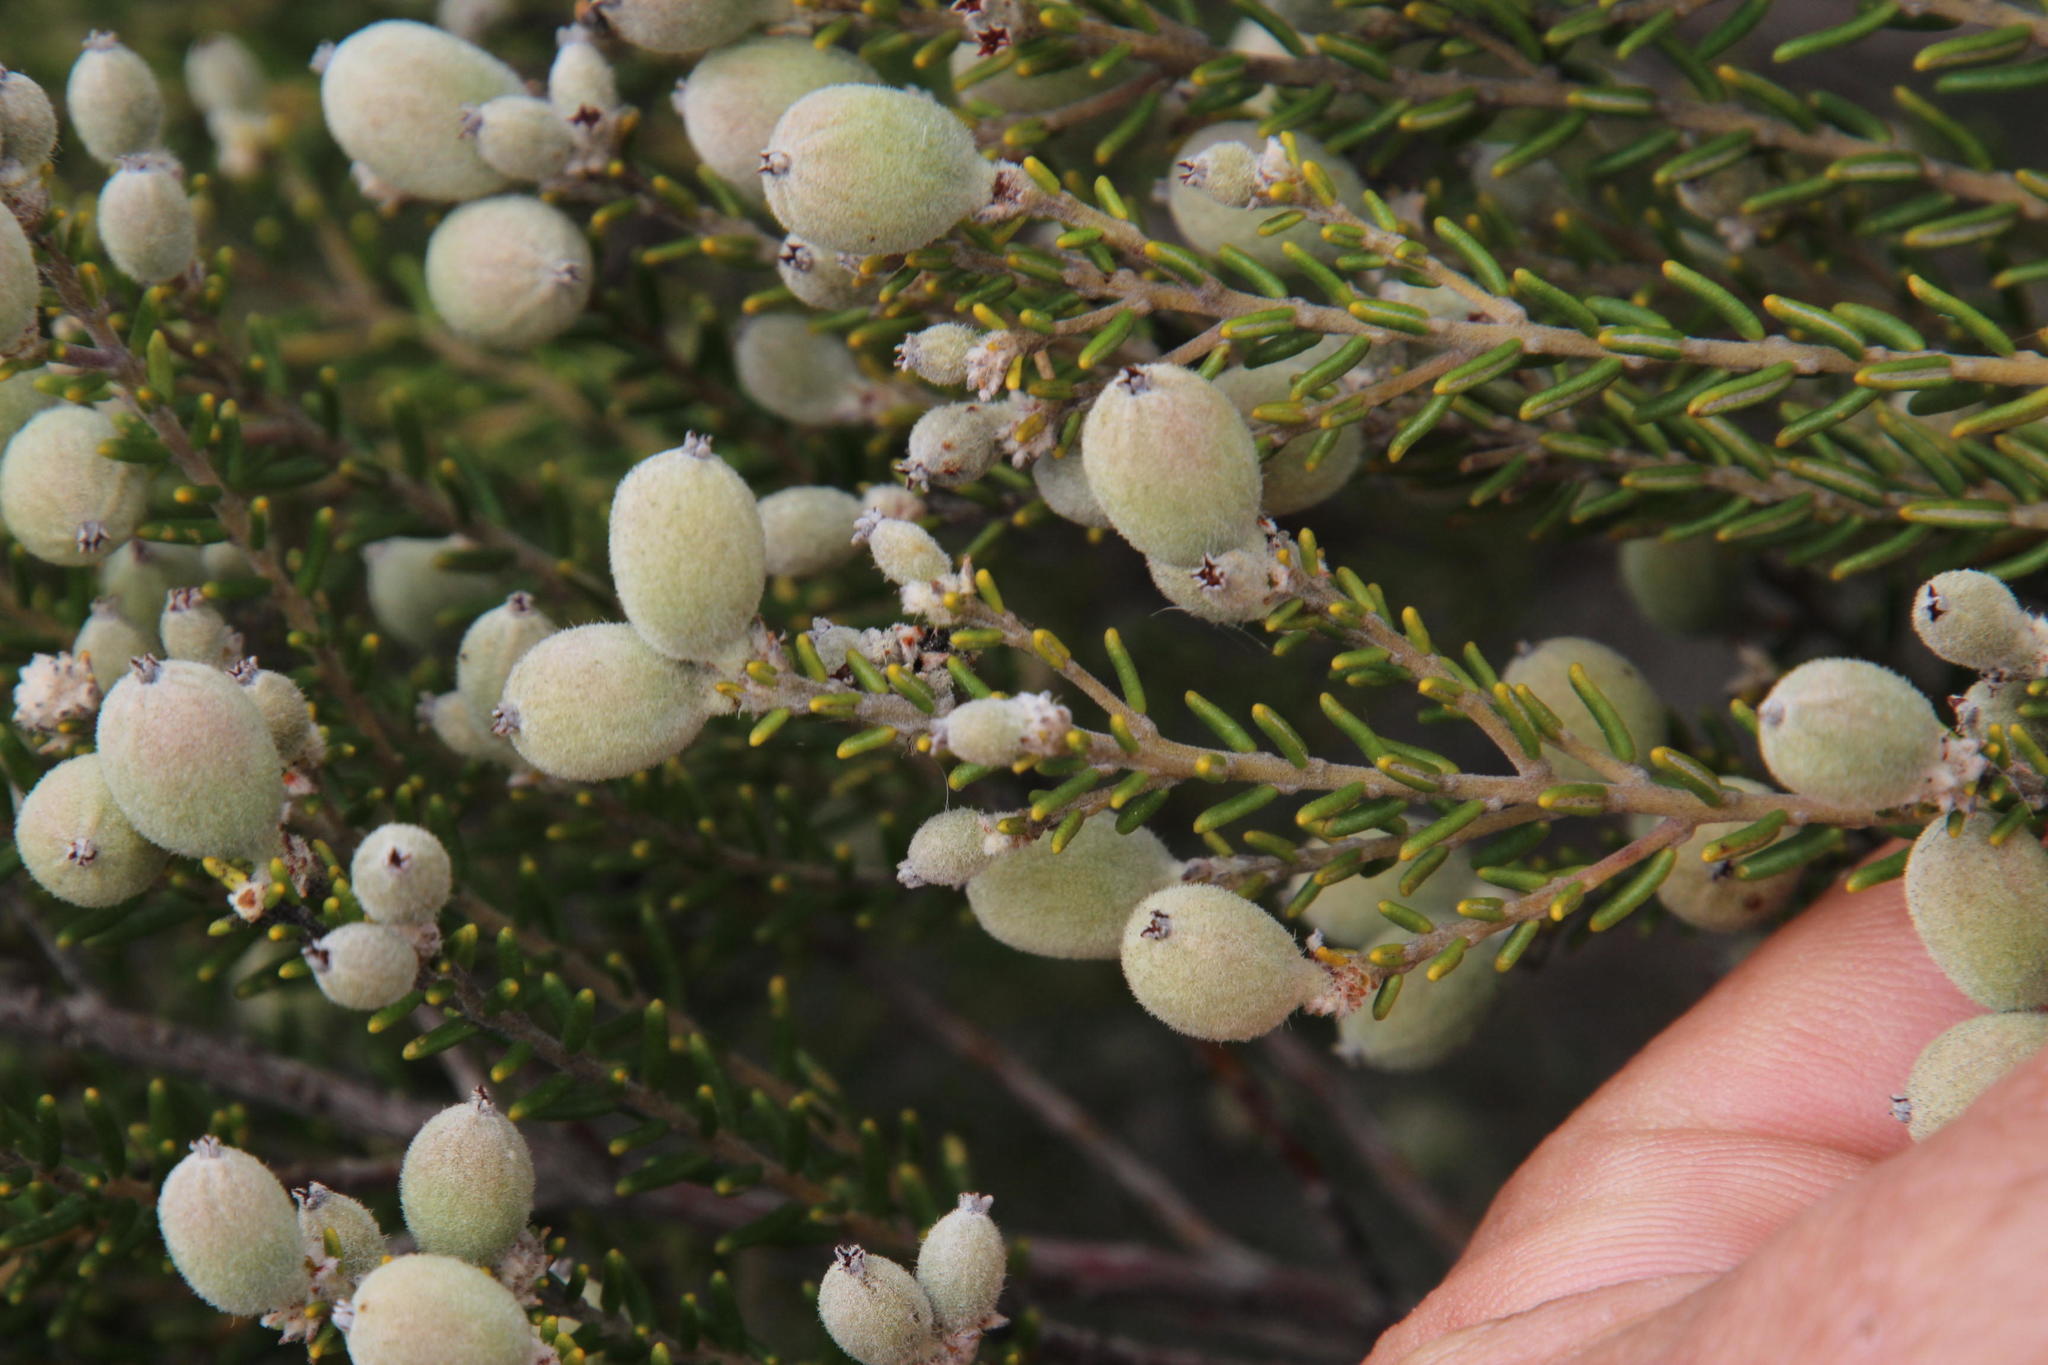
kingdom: Plantae
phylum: Tracheophyta
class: Magnoliopsida
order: Rosales
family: Rhamnaceae
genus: Phylica
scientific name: Phylica cephalantha
